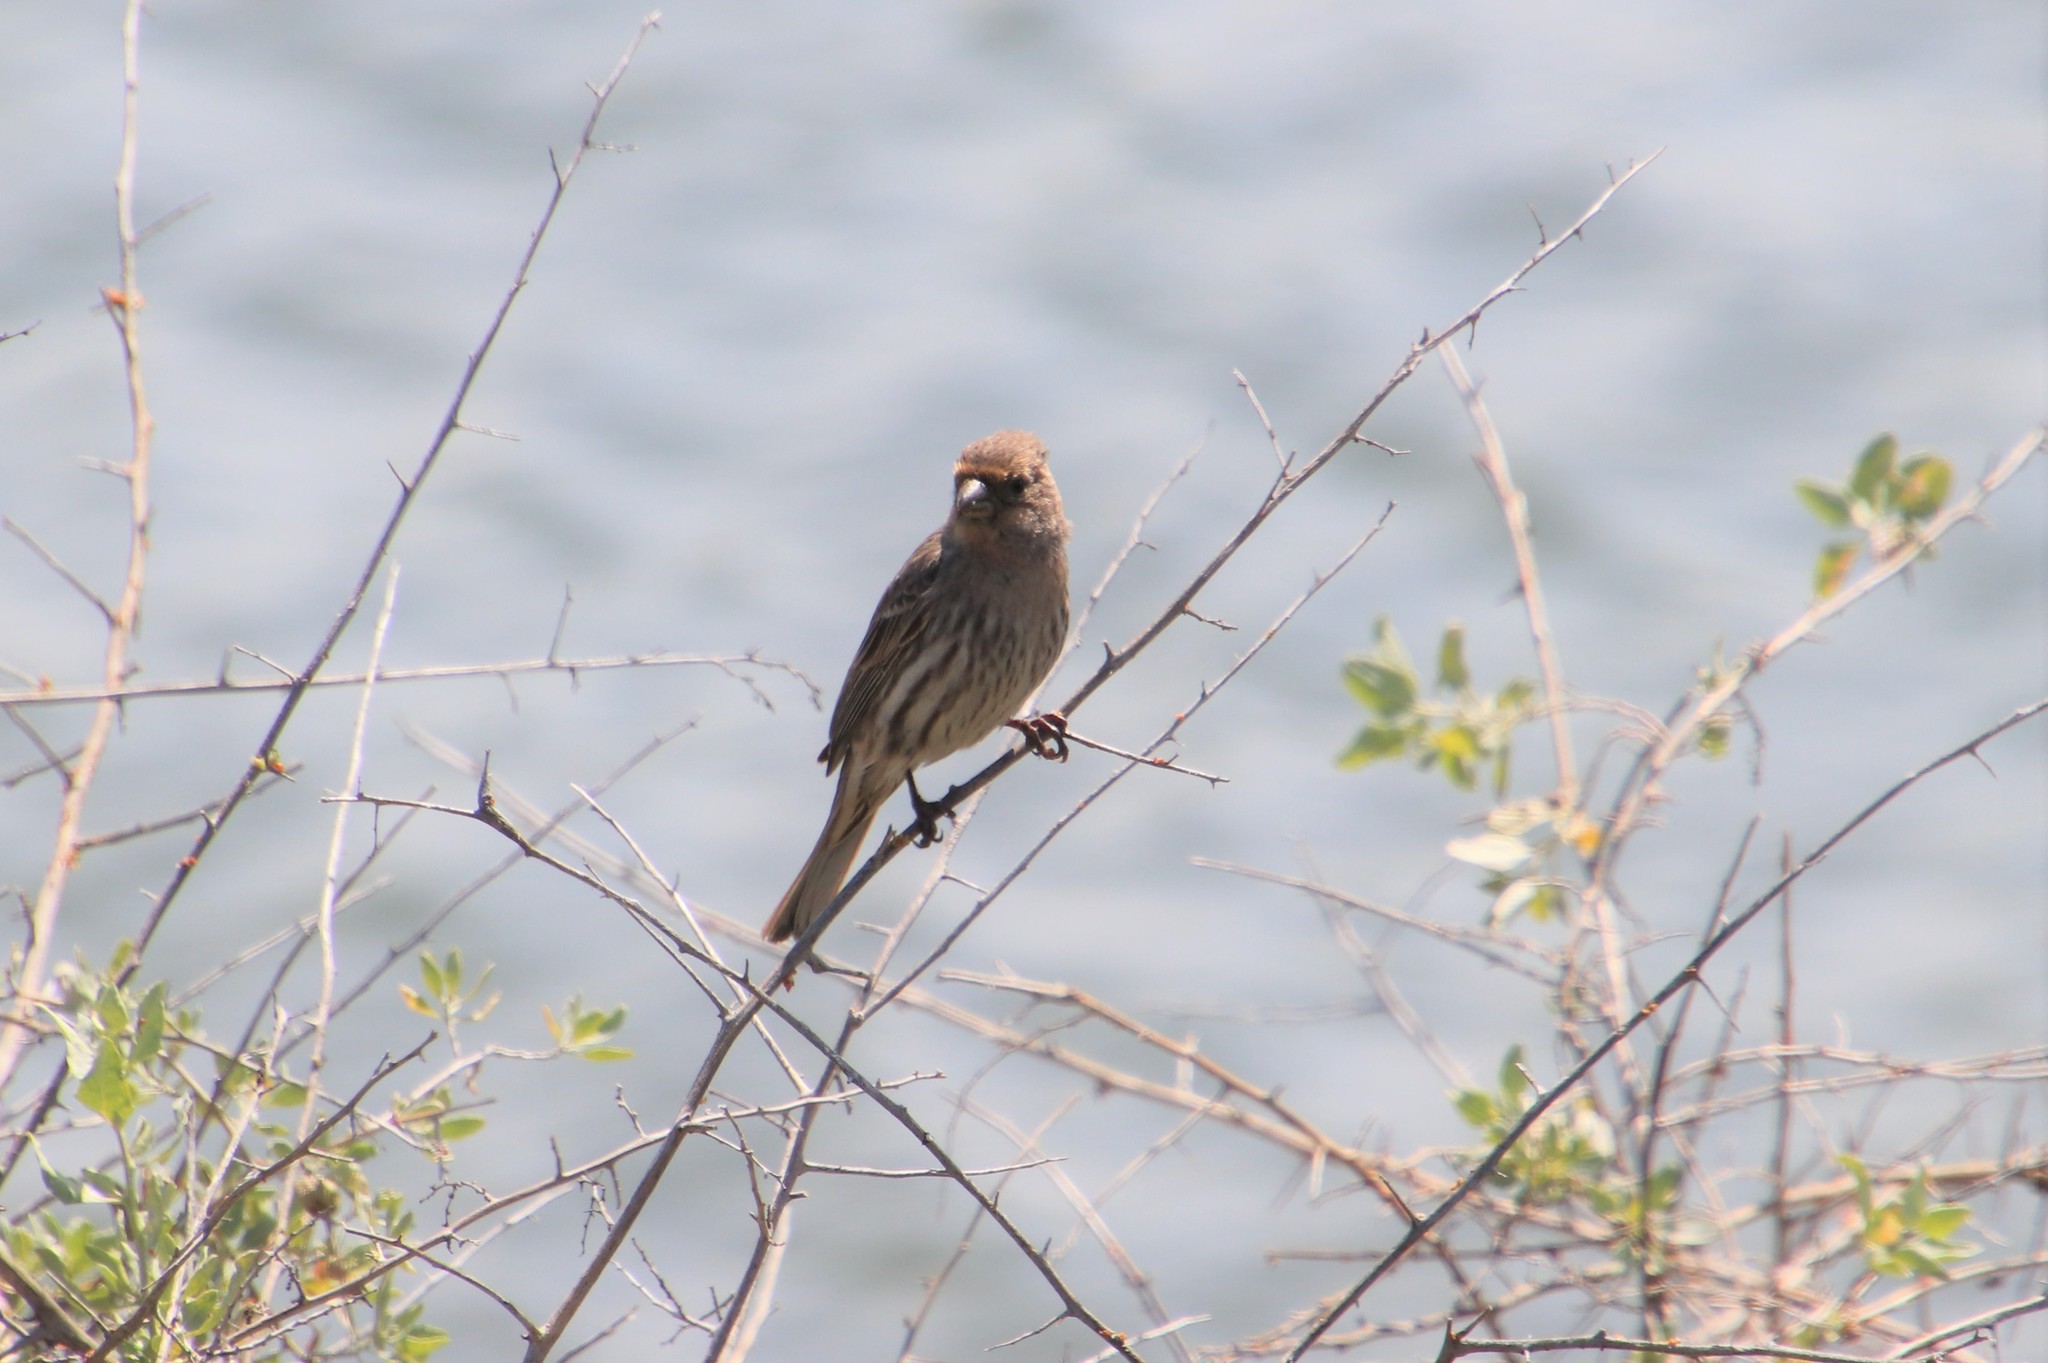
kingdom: Animalia
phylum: Chordata
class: Aves
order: Passeriformes
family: Fringillidae
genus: Haemorhous
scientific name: Haemorhous mexicanus
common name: House finch
